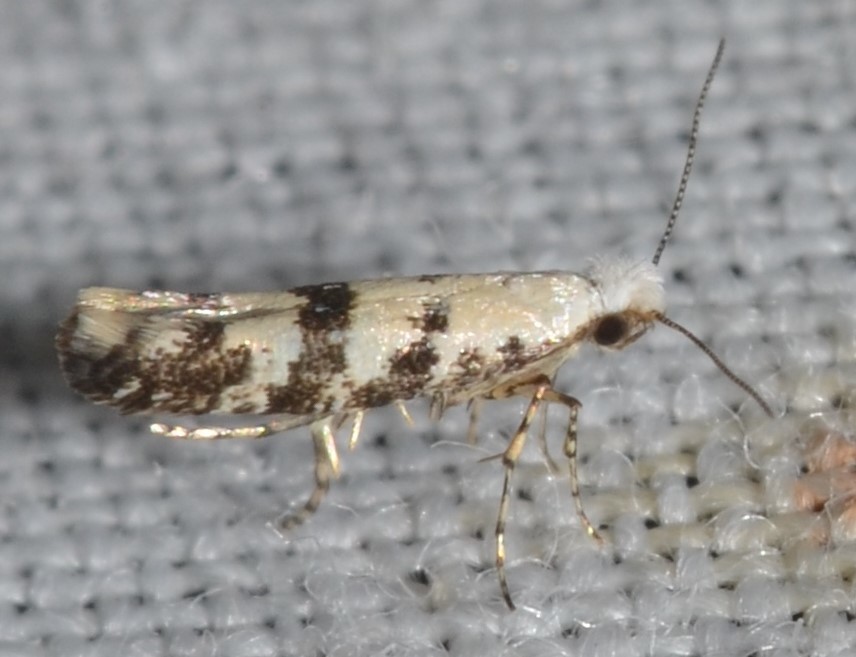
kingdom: Animalia
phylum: Arthropoda
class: Insecta
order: Lepidoptera
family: Argyresthiidae
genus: Argyresthia
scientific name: Argyresthia austerella
